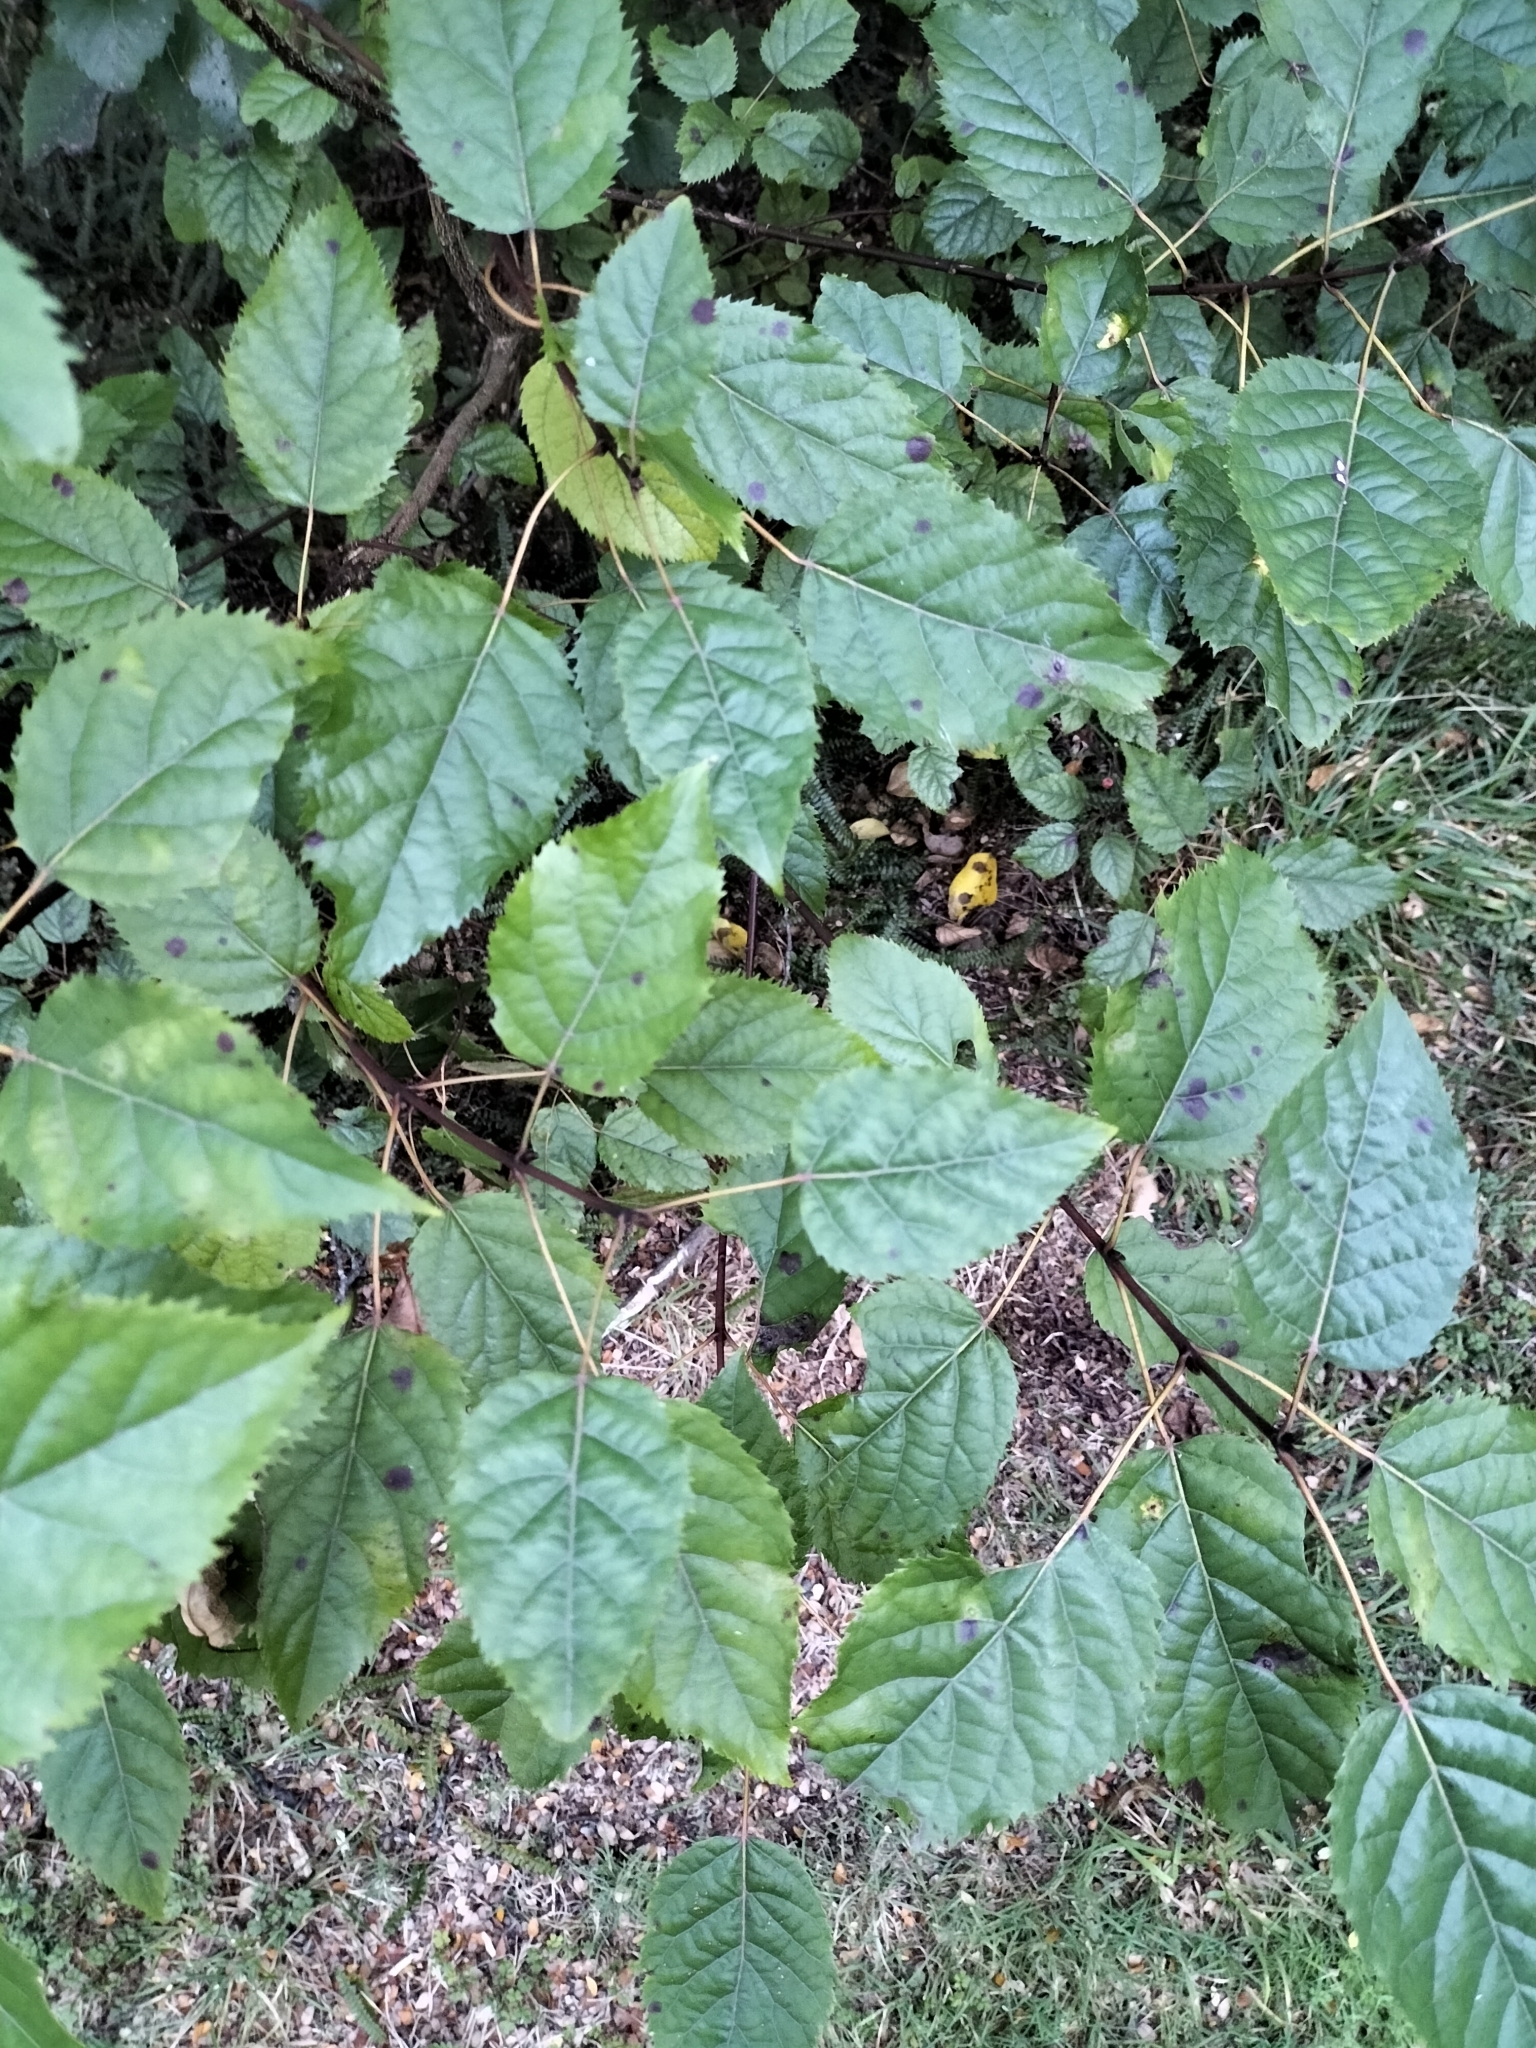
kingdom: Plantae
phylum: Tracheophyta
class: Magnoliopsida
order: Oxalidales
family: Elaeocarpaceae
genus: Aristotelia
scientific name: Aristotelia serrata
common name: New zealand wineberry
